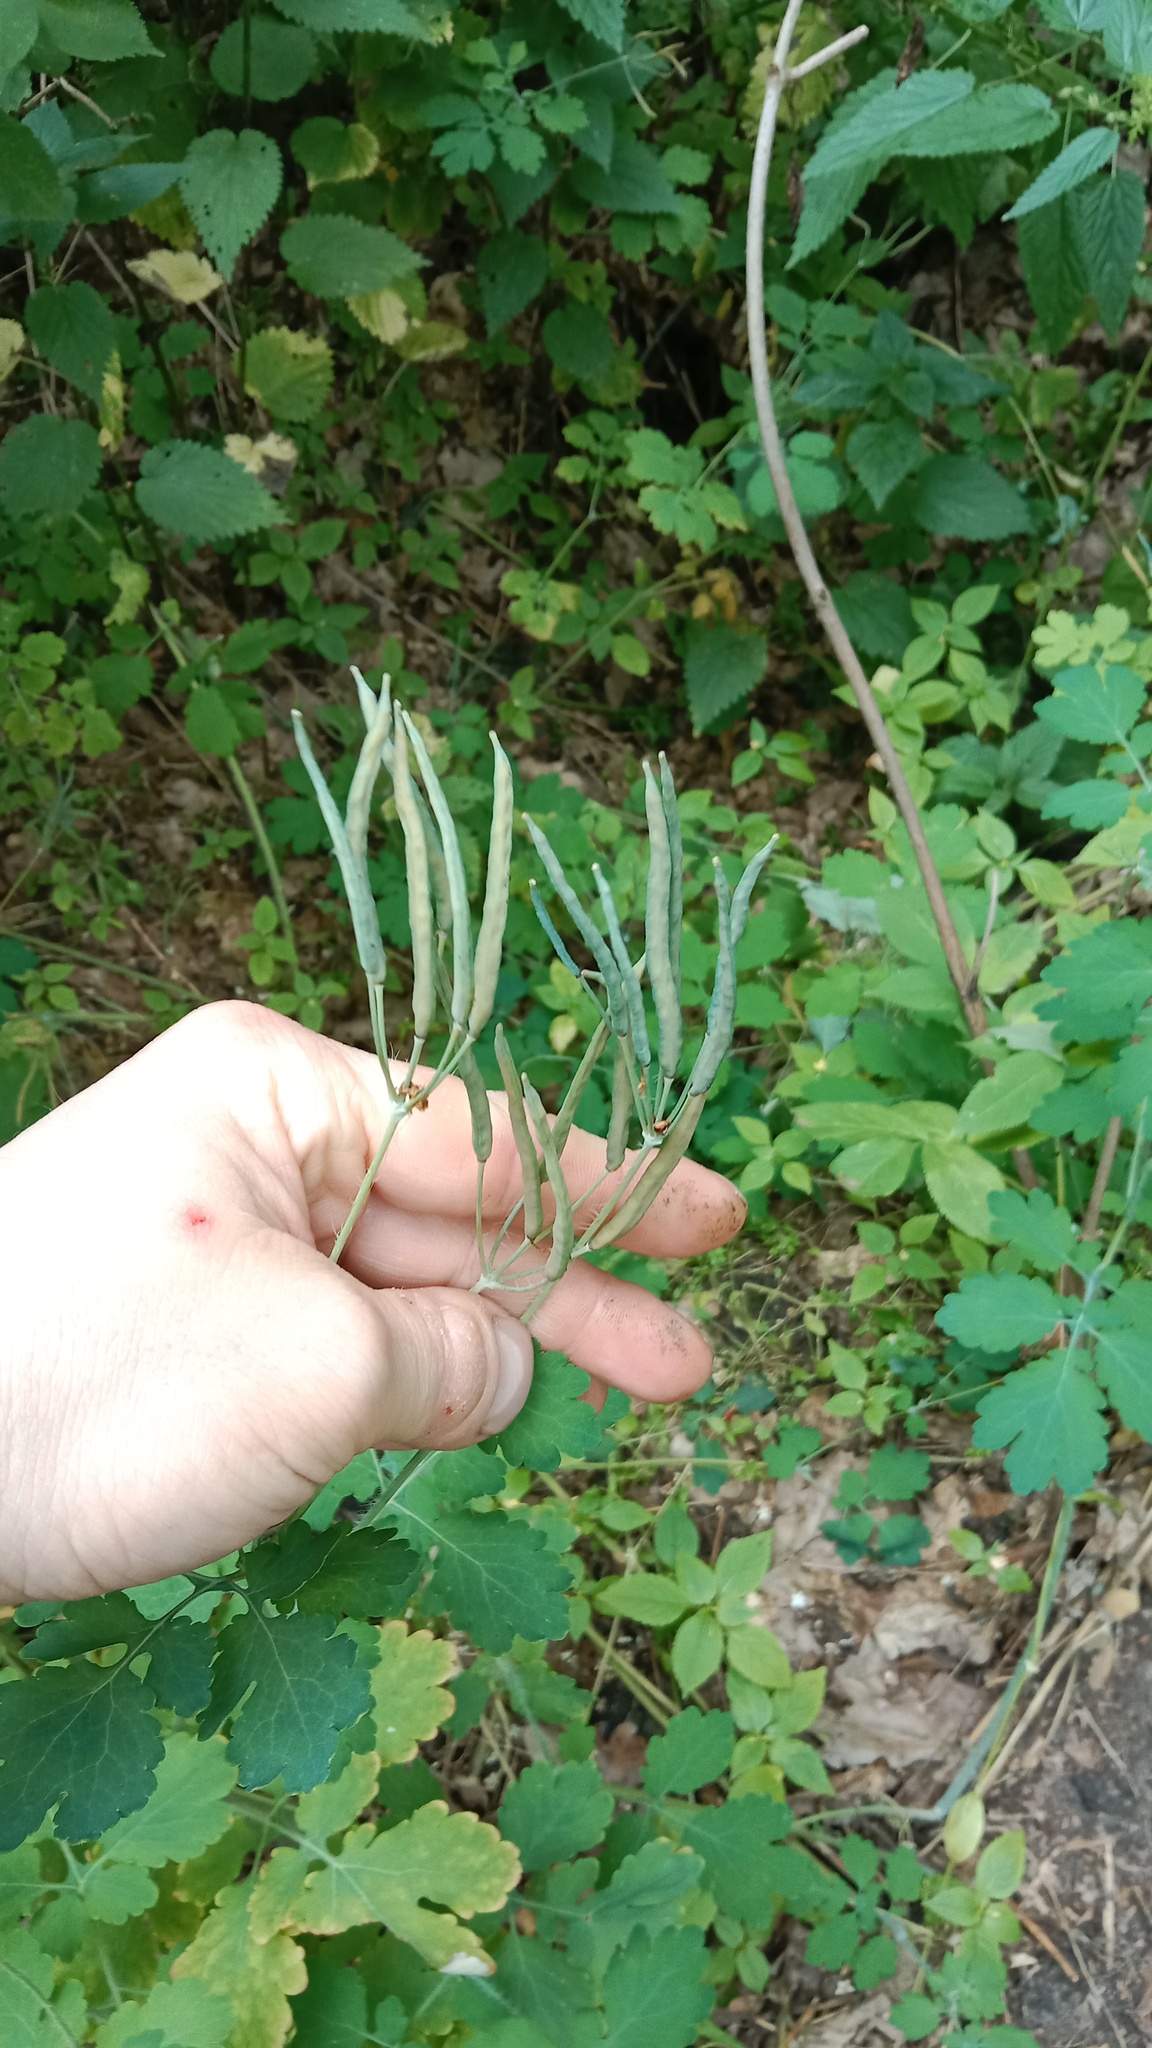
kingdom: Plantae
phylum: Tracheophyta
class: Magnoliopsida
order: Ranunculales
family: Papaveraceae
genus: Chelidonium
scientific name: Chelidonium majus
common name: Greater celandine
